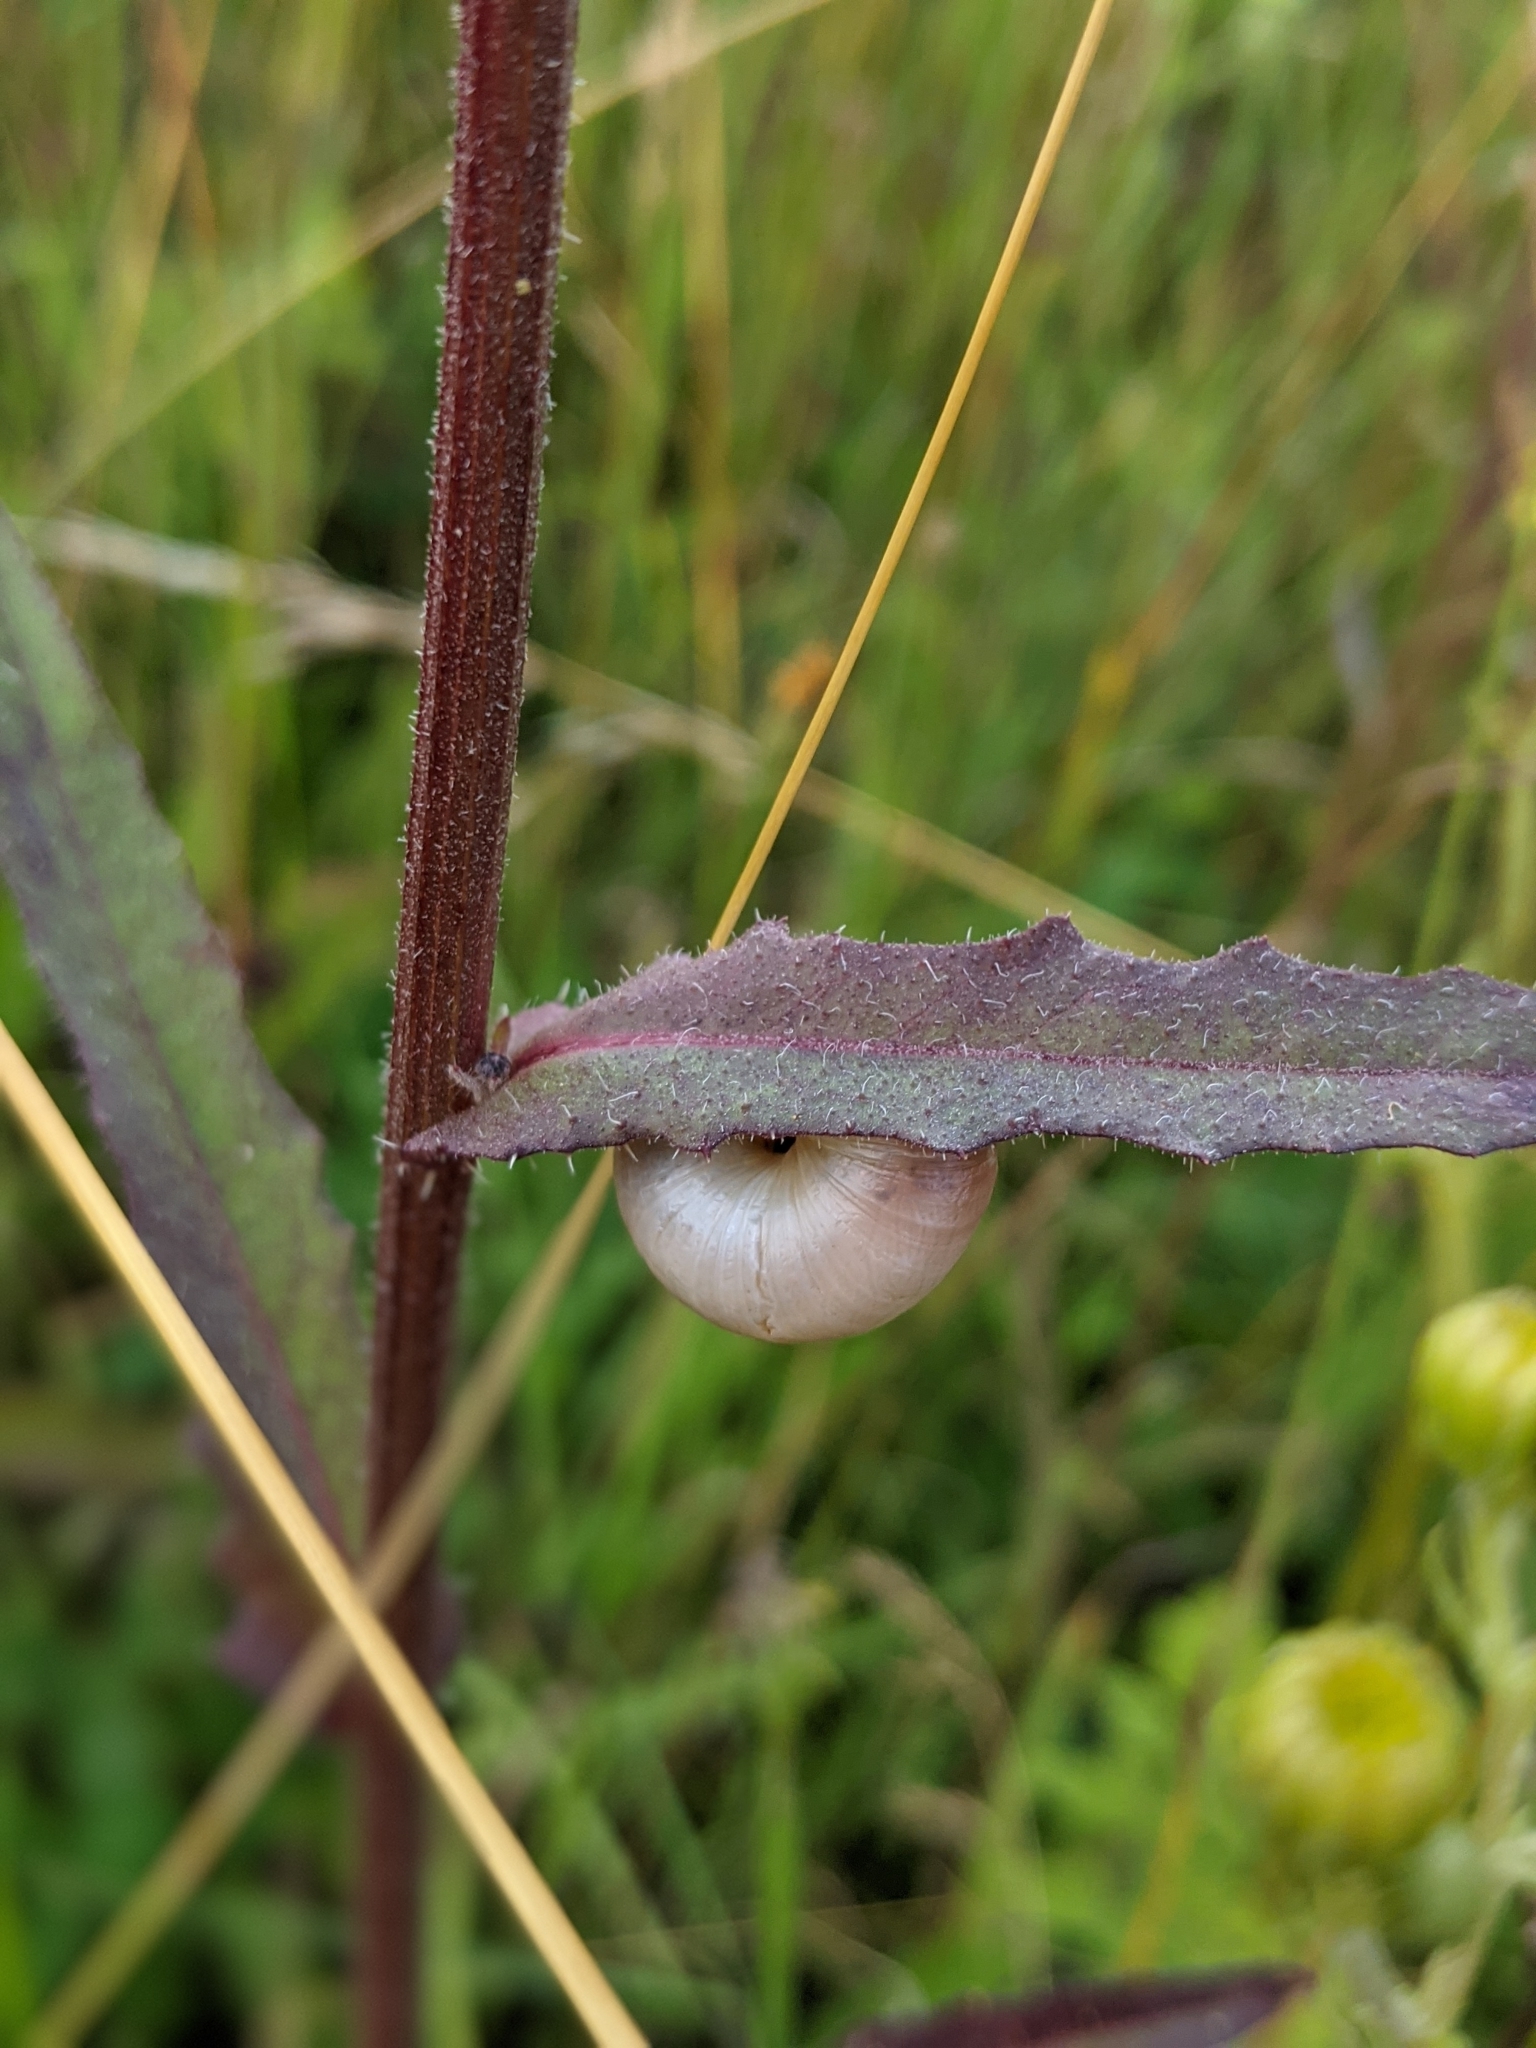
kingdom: Animalia
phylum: Mollusca
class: Gastropoda
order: Stylommatophora
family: Hygromiidae
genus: Monacha
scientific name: Monacha cantiana
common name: Kentish snail
